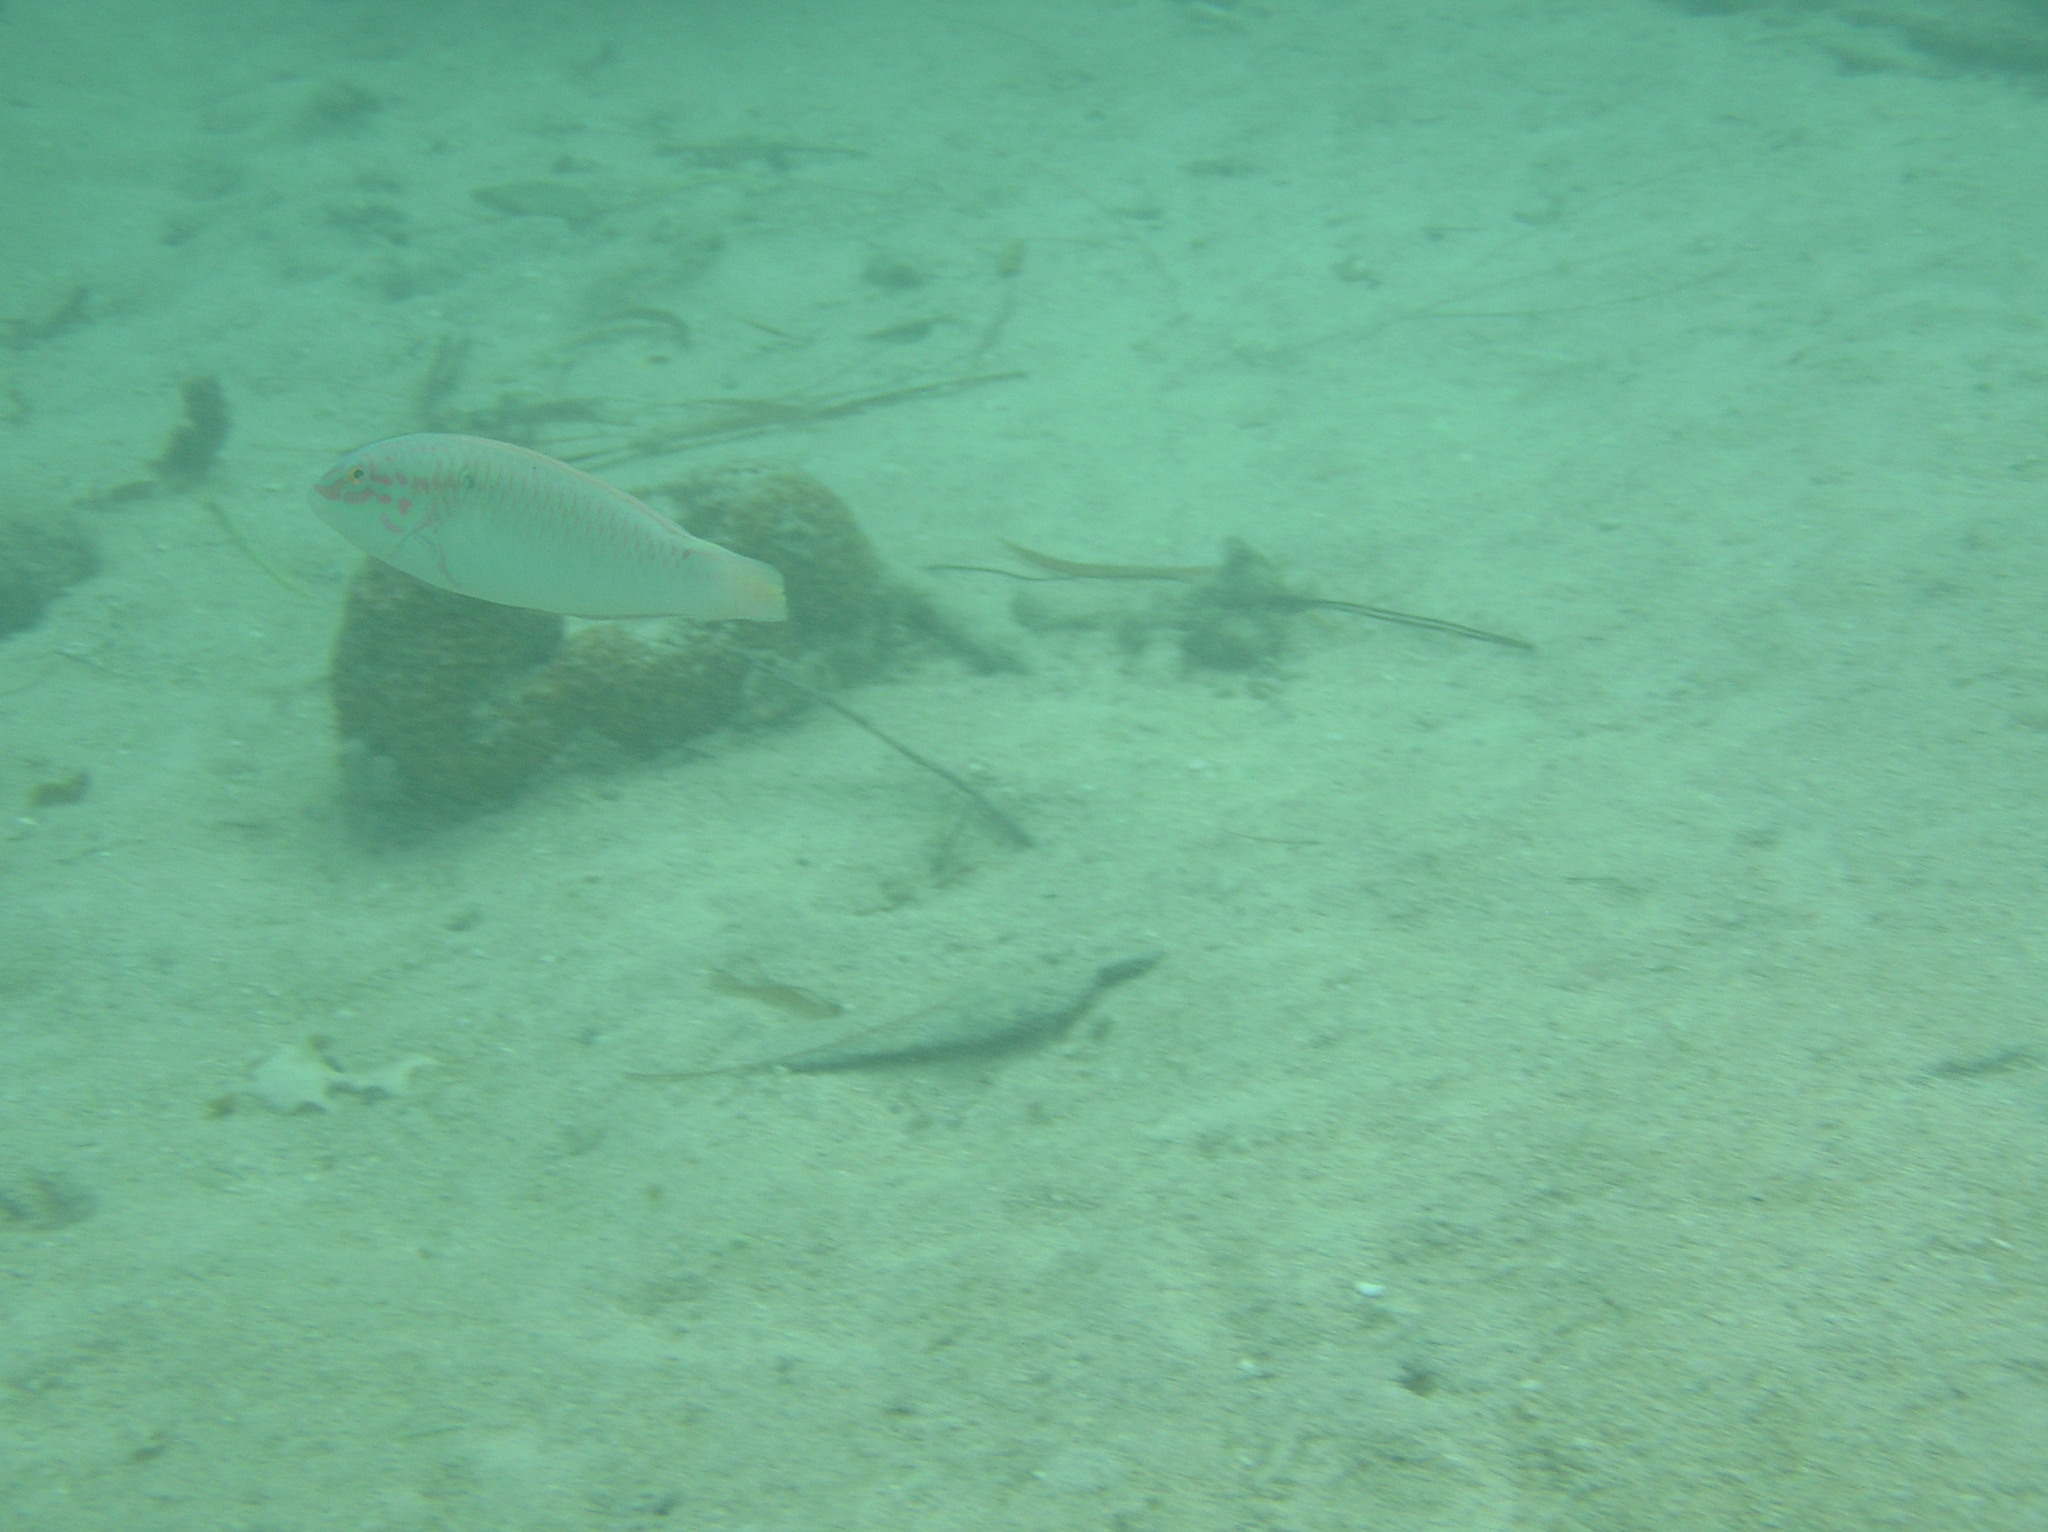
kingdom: Animalia
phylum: Chordata
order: Perciformes
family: Labridae
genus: Halichoeres
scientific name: Halichoeres trimaculatus
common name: Three-spot wrasse
